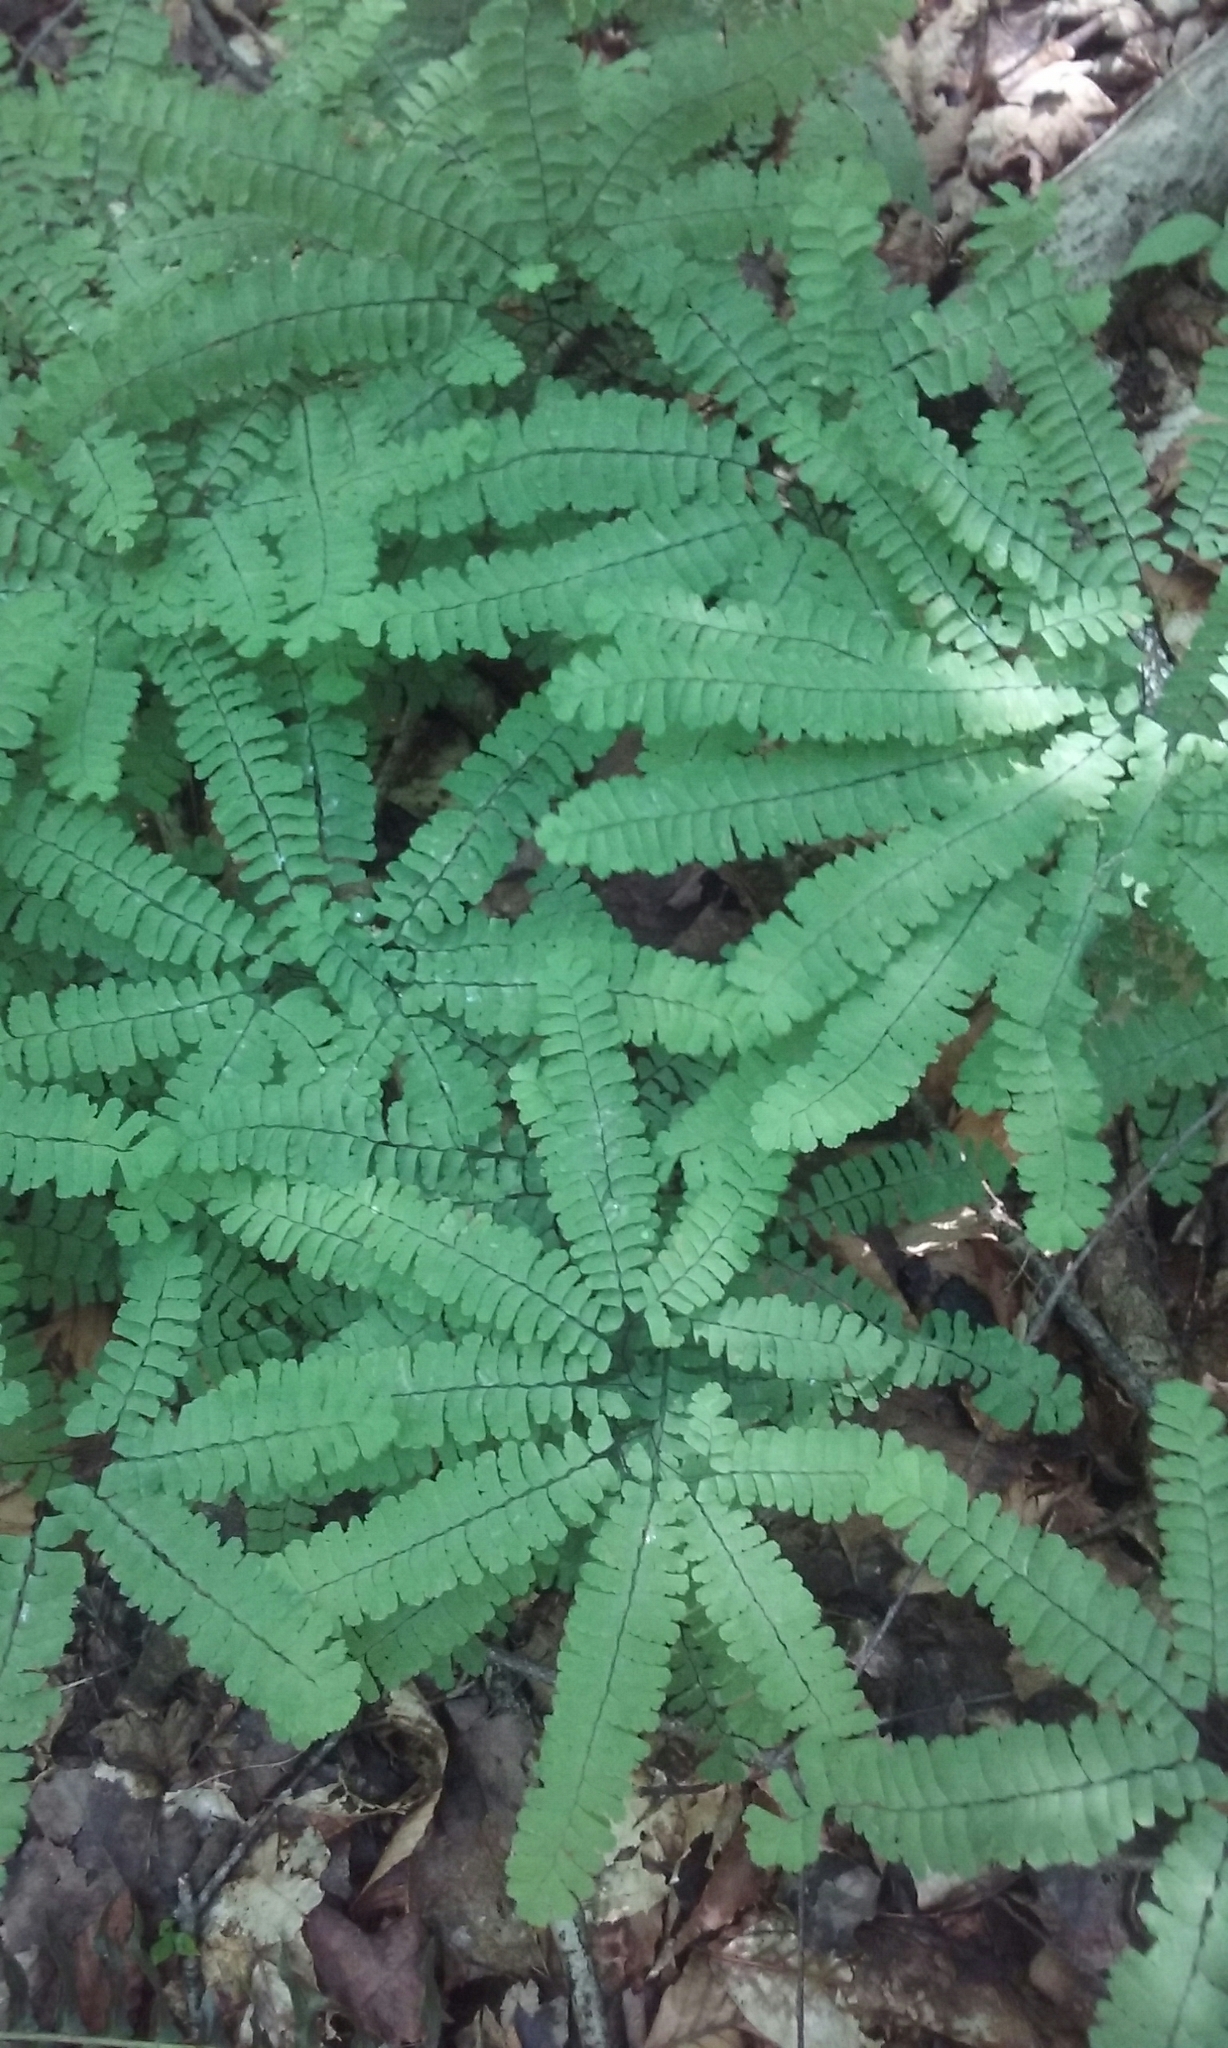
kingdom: Plantae
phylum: Tracheophyta
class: Polypodiopsida
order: Polypodiales
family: Pteridaceae
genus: Adiantum
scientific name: Adiantum pedatum
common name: Five-finger fern
